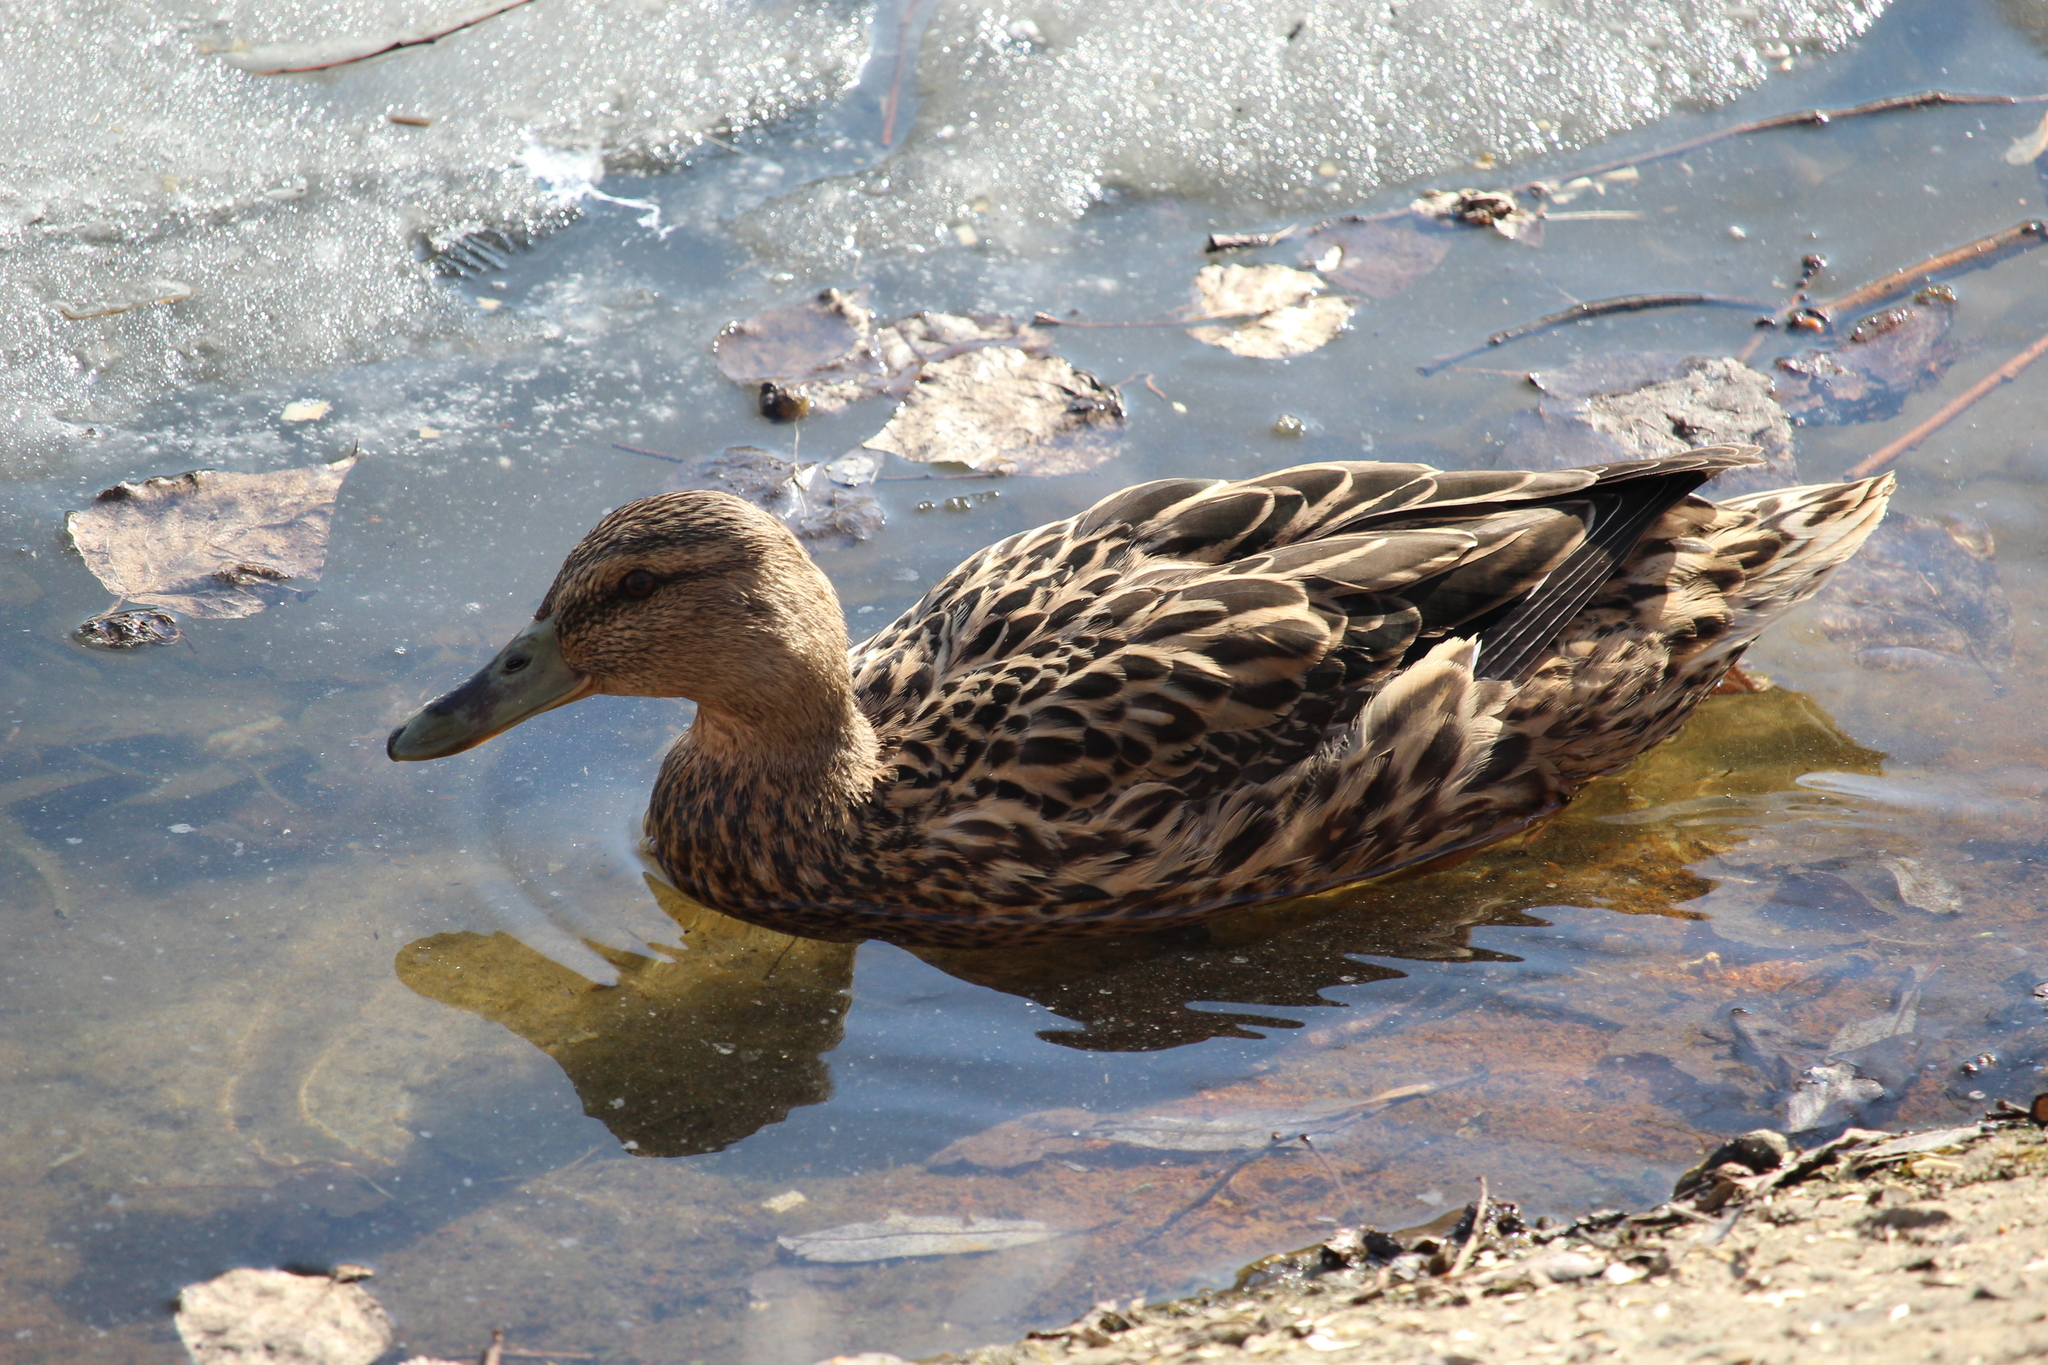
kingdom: Animalia
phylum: Chordata
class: Aves
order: Anseriformes
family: Anatidae
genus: Anas
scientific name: Anas platyrhynchos
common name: Mallard
